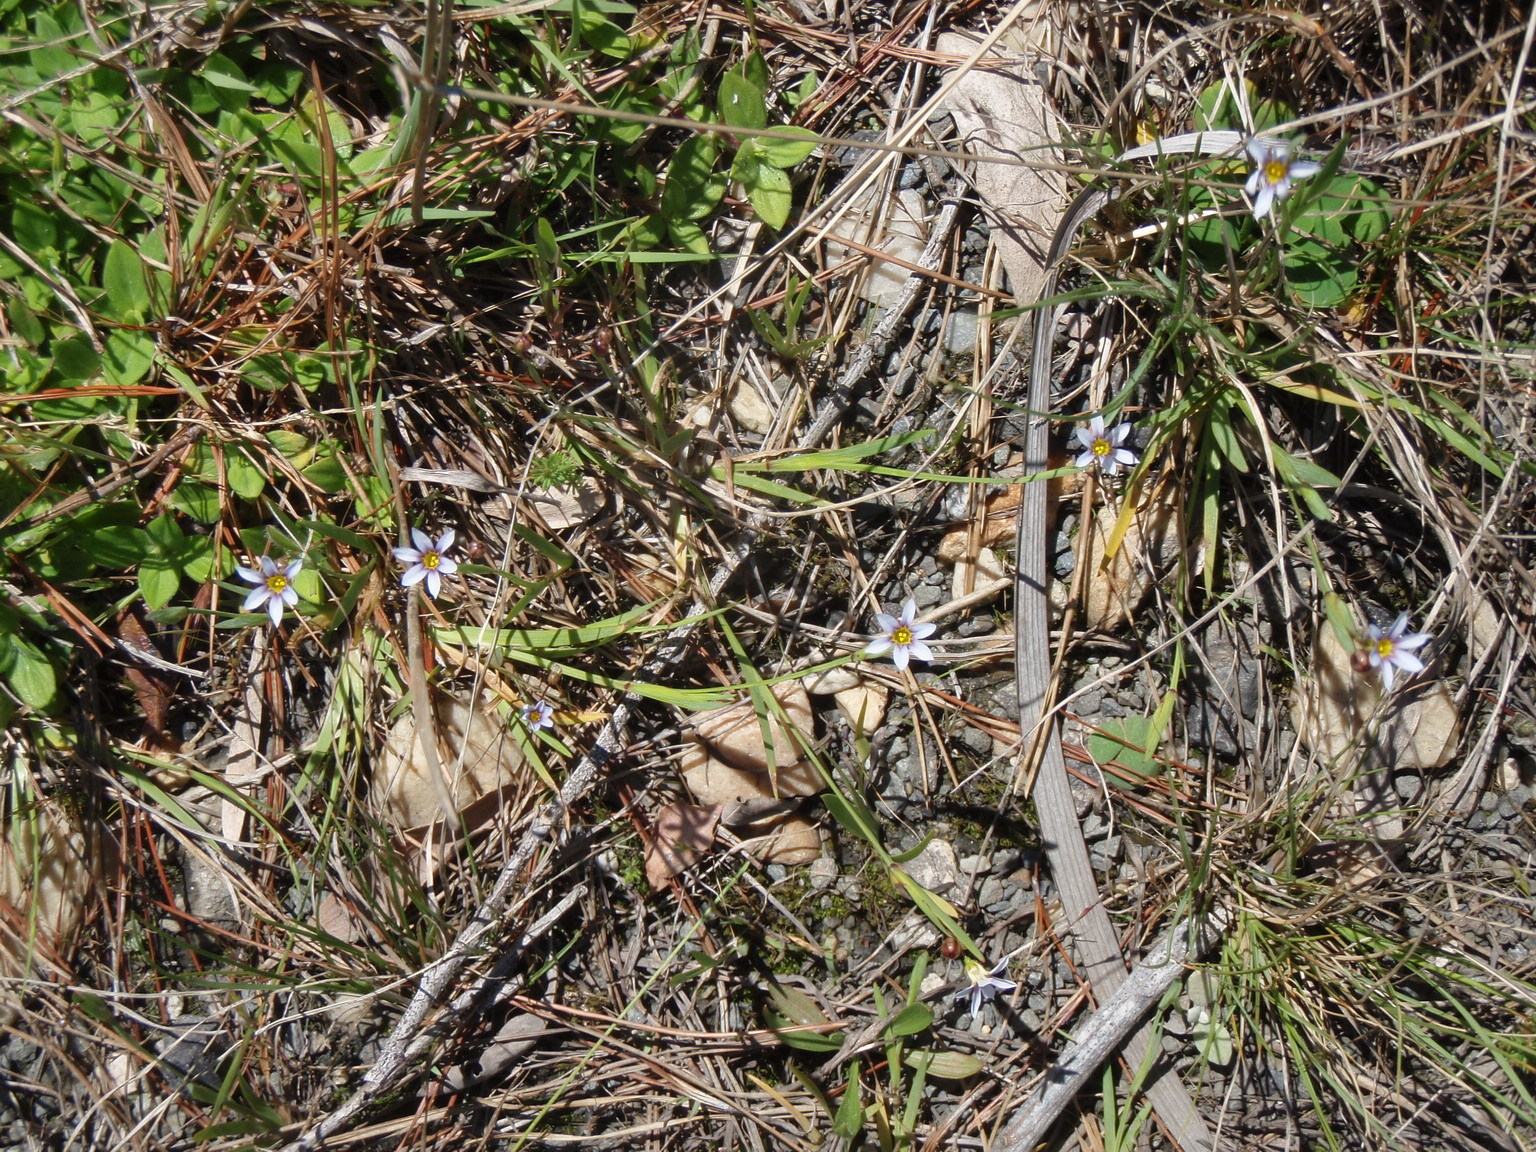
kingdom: Plantae
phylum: Tracheophyta
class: Liliopsida
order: Asparagales
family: Iridaceae
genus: Sisyrinchium
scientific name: Sisyrinchium micranthum
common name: Bermuda pigroot
